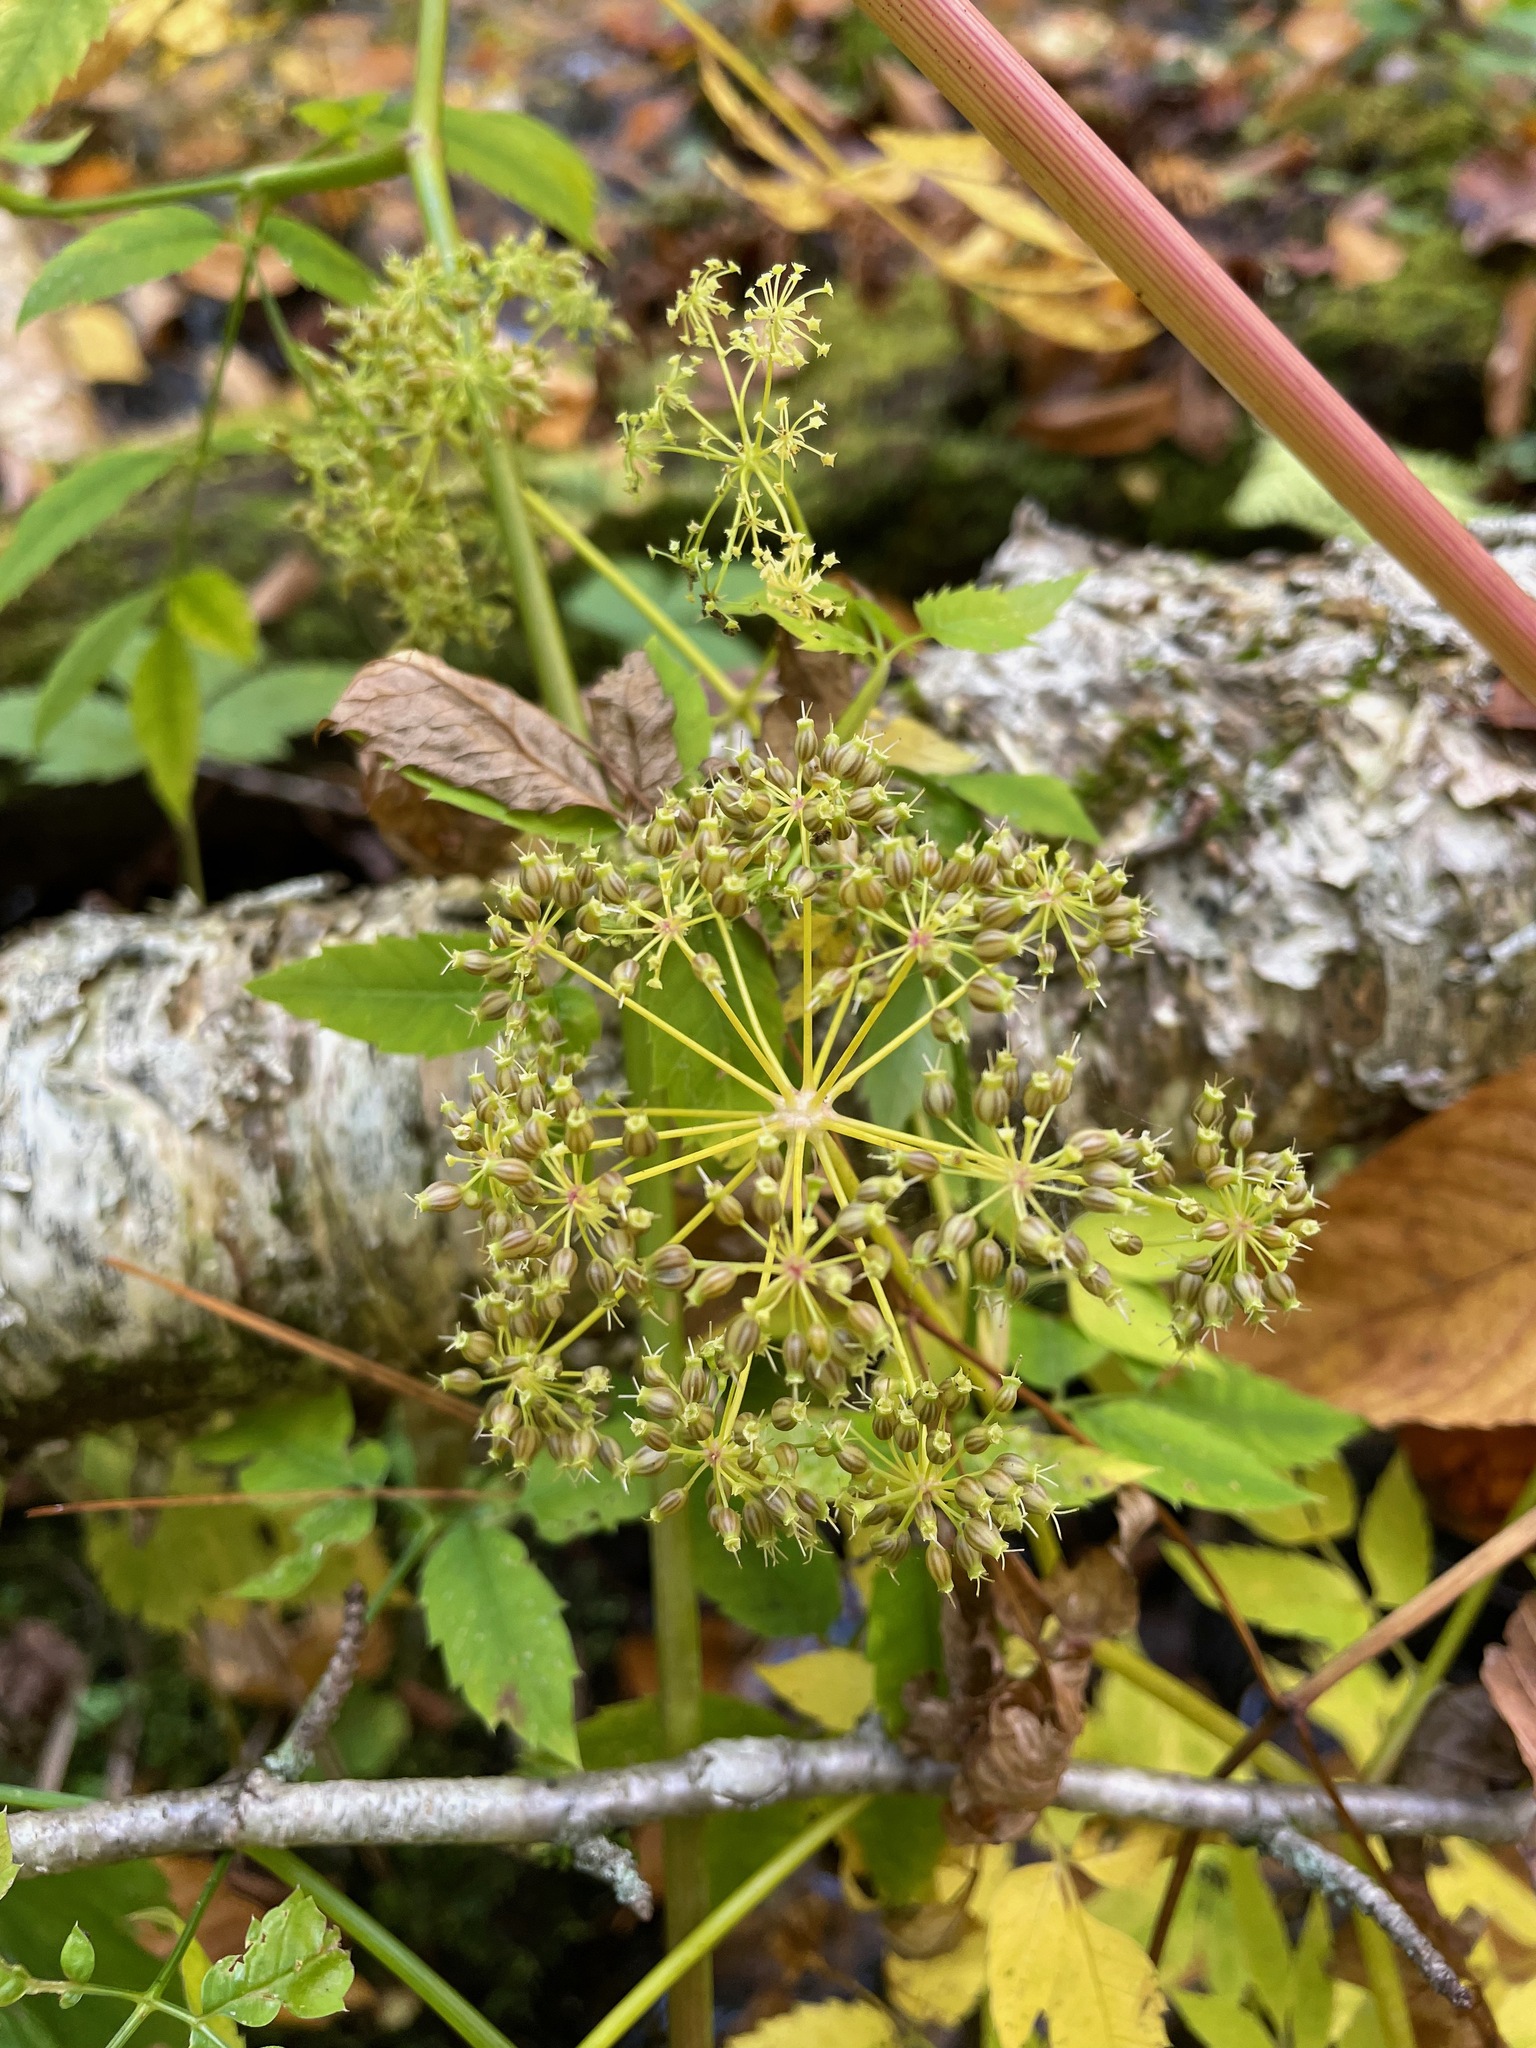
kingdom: Plantae
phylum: Tracheophyta
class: Magnoliopsida
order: Apiales
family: Apiaceae
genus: Cicuta
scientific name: Cicuta maculata
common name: Spotted cowbane
